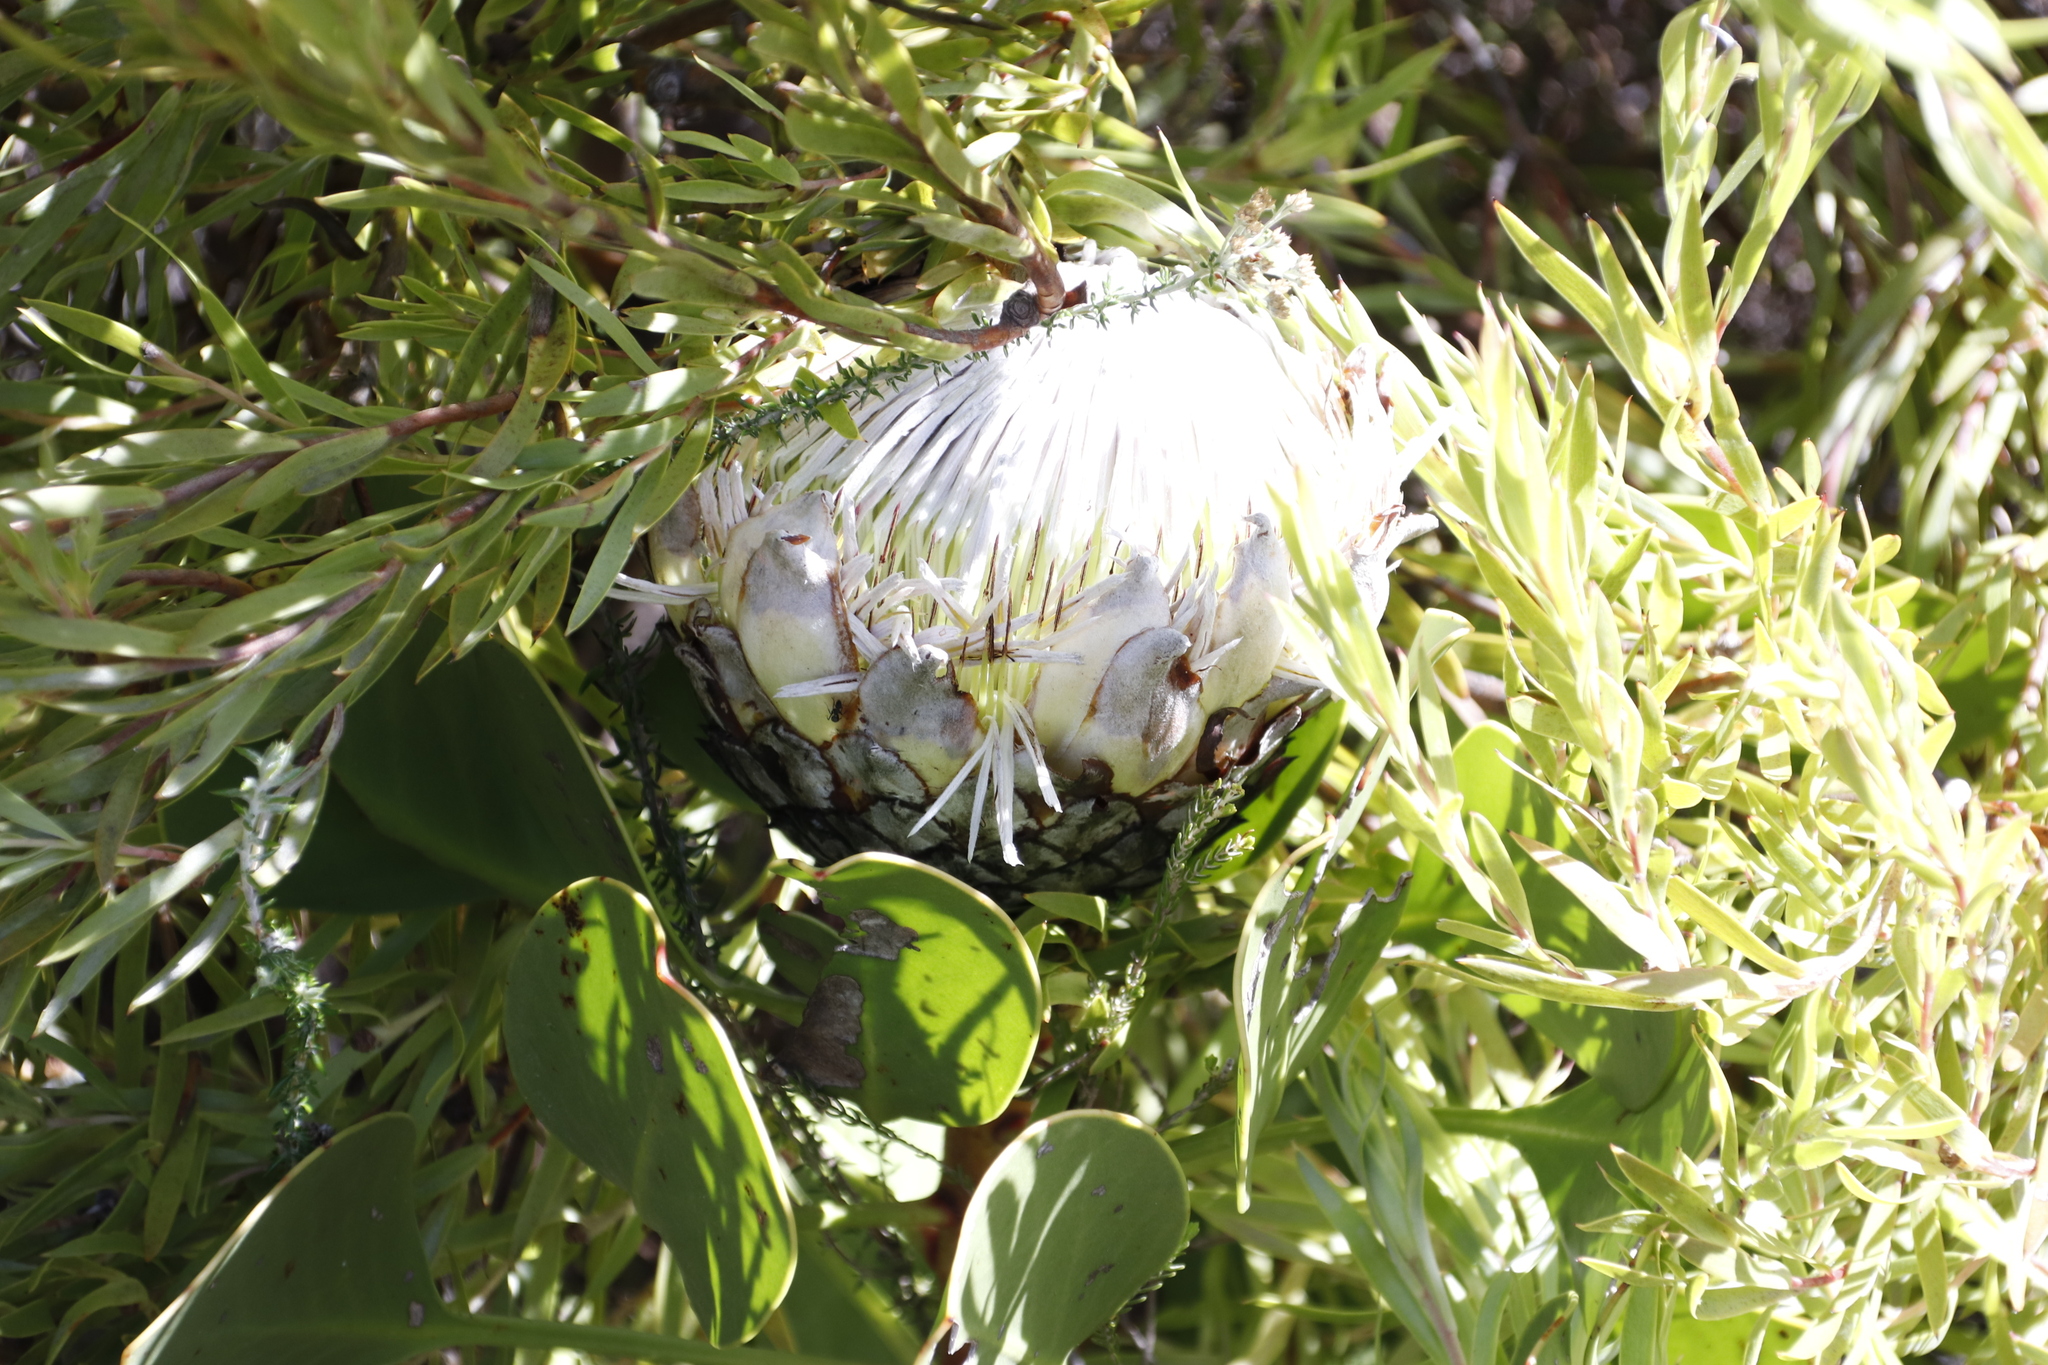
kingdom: Plantae
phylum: Tracheophyta
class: Magnoliopsida
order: Proteales
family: Proteaceae
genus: Protea
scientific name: Protea cynaroides
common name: King protea
